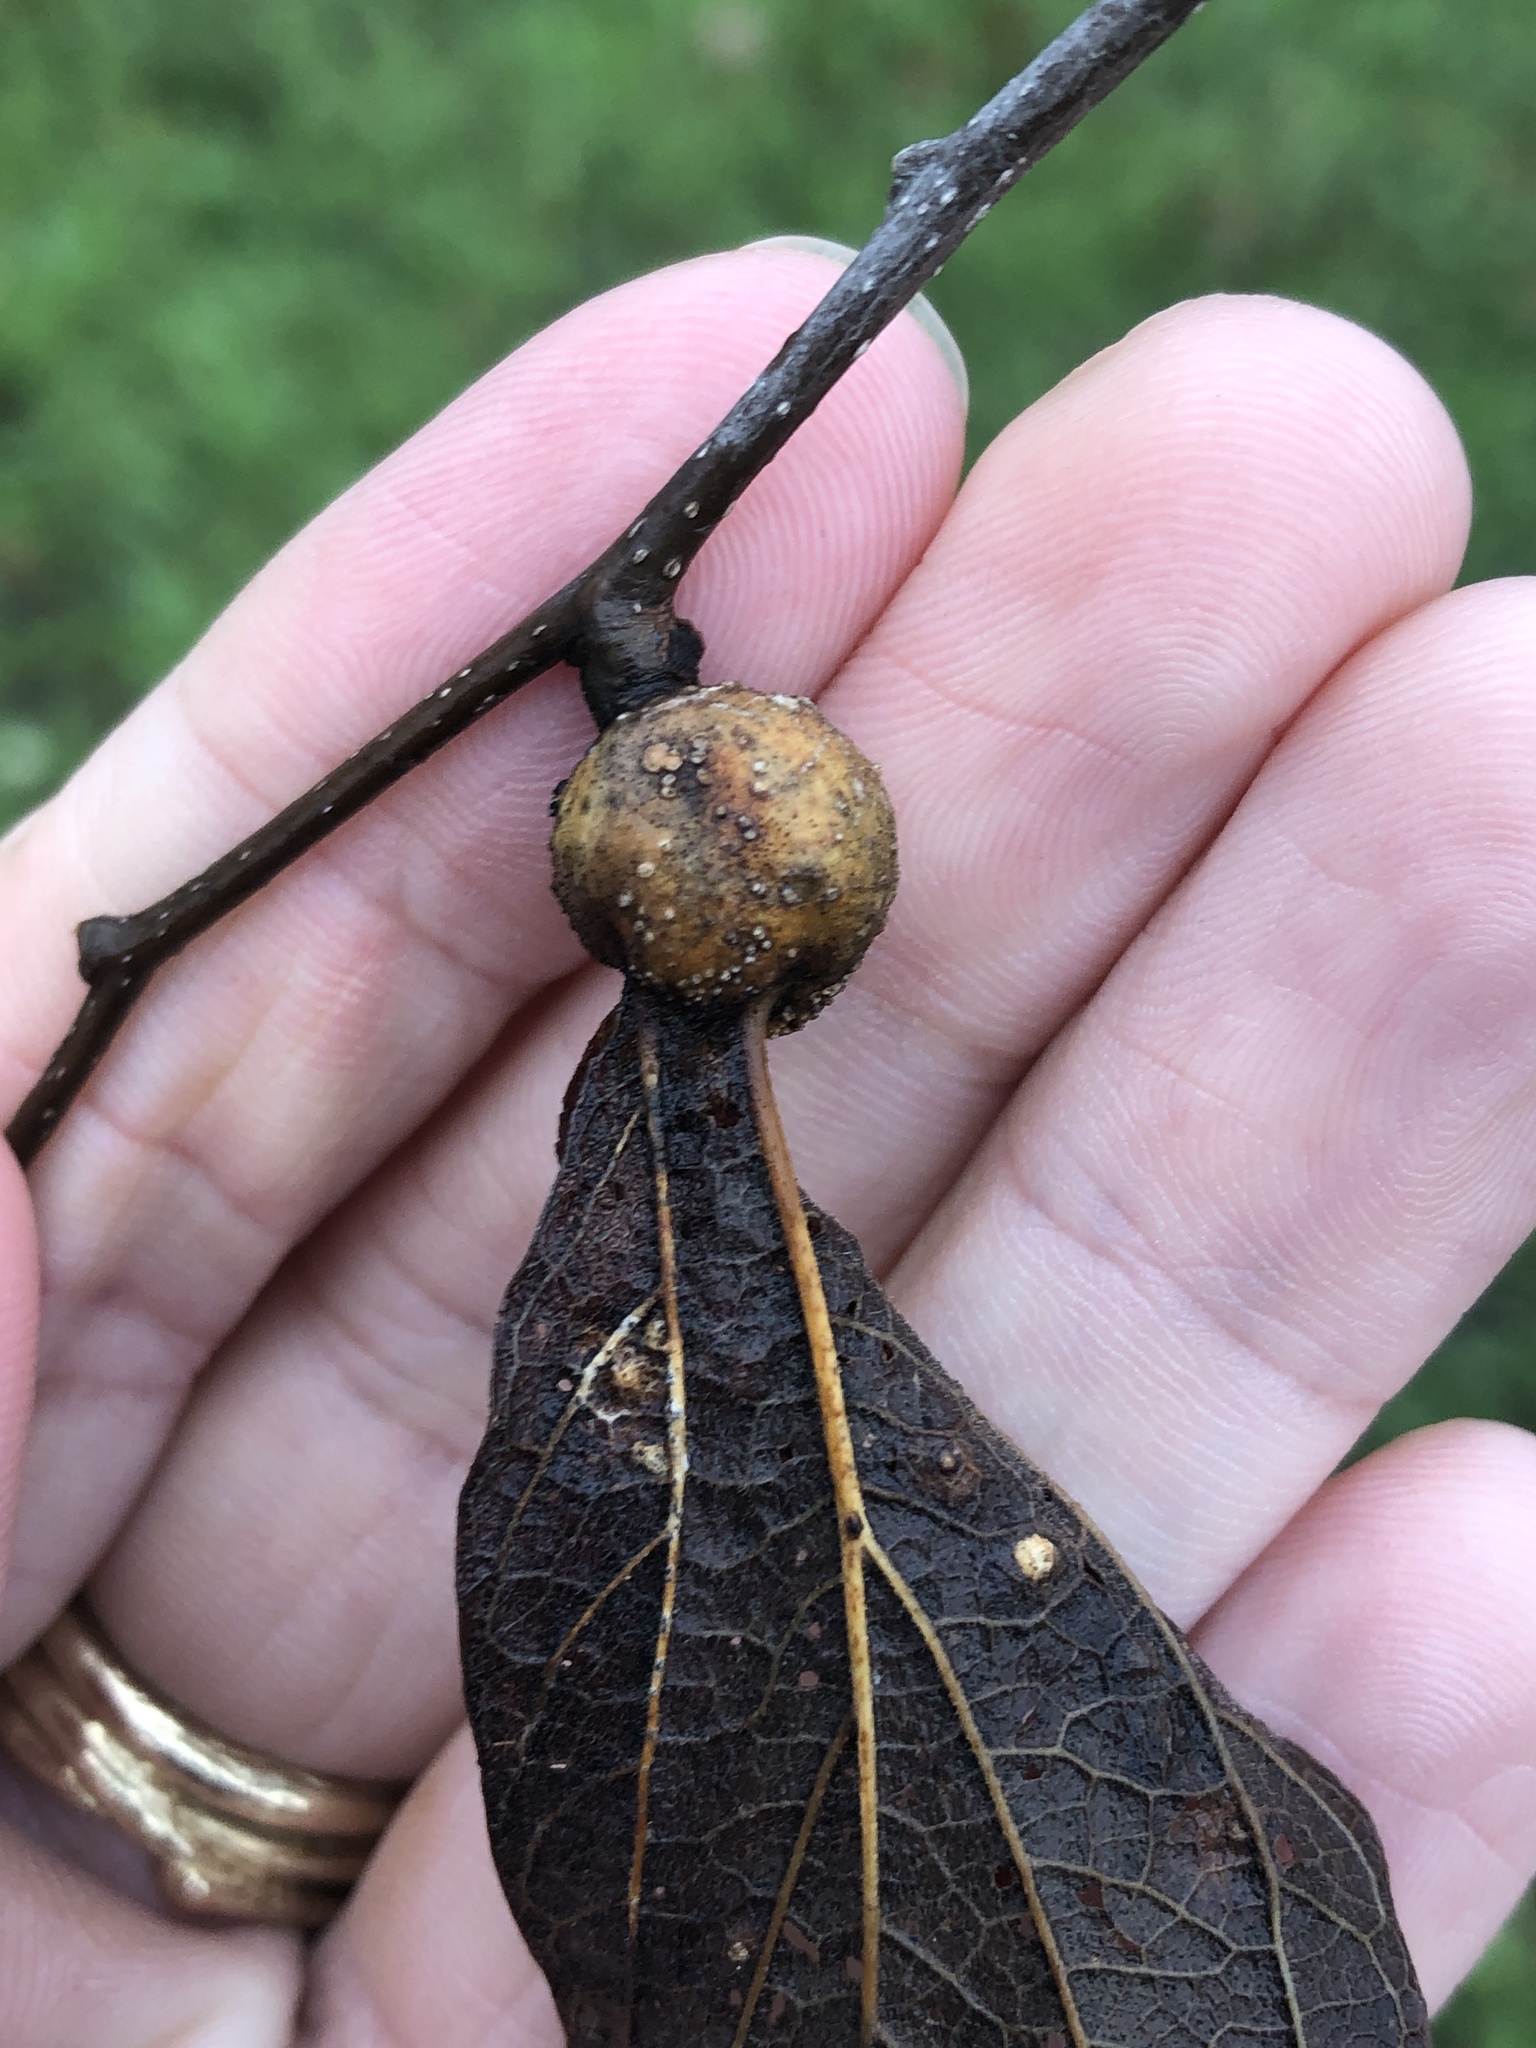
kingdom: Animalia
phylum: Arthropoda
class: Insecta
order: Hemiptera
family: Aphalaridae
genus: Pachypsylla
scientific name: Pachypsylla venusta
